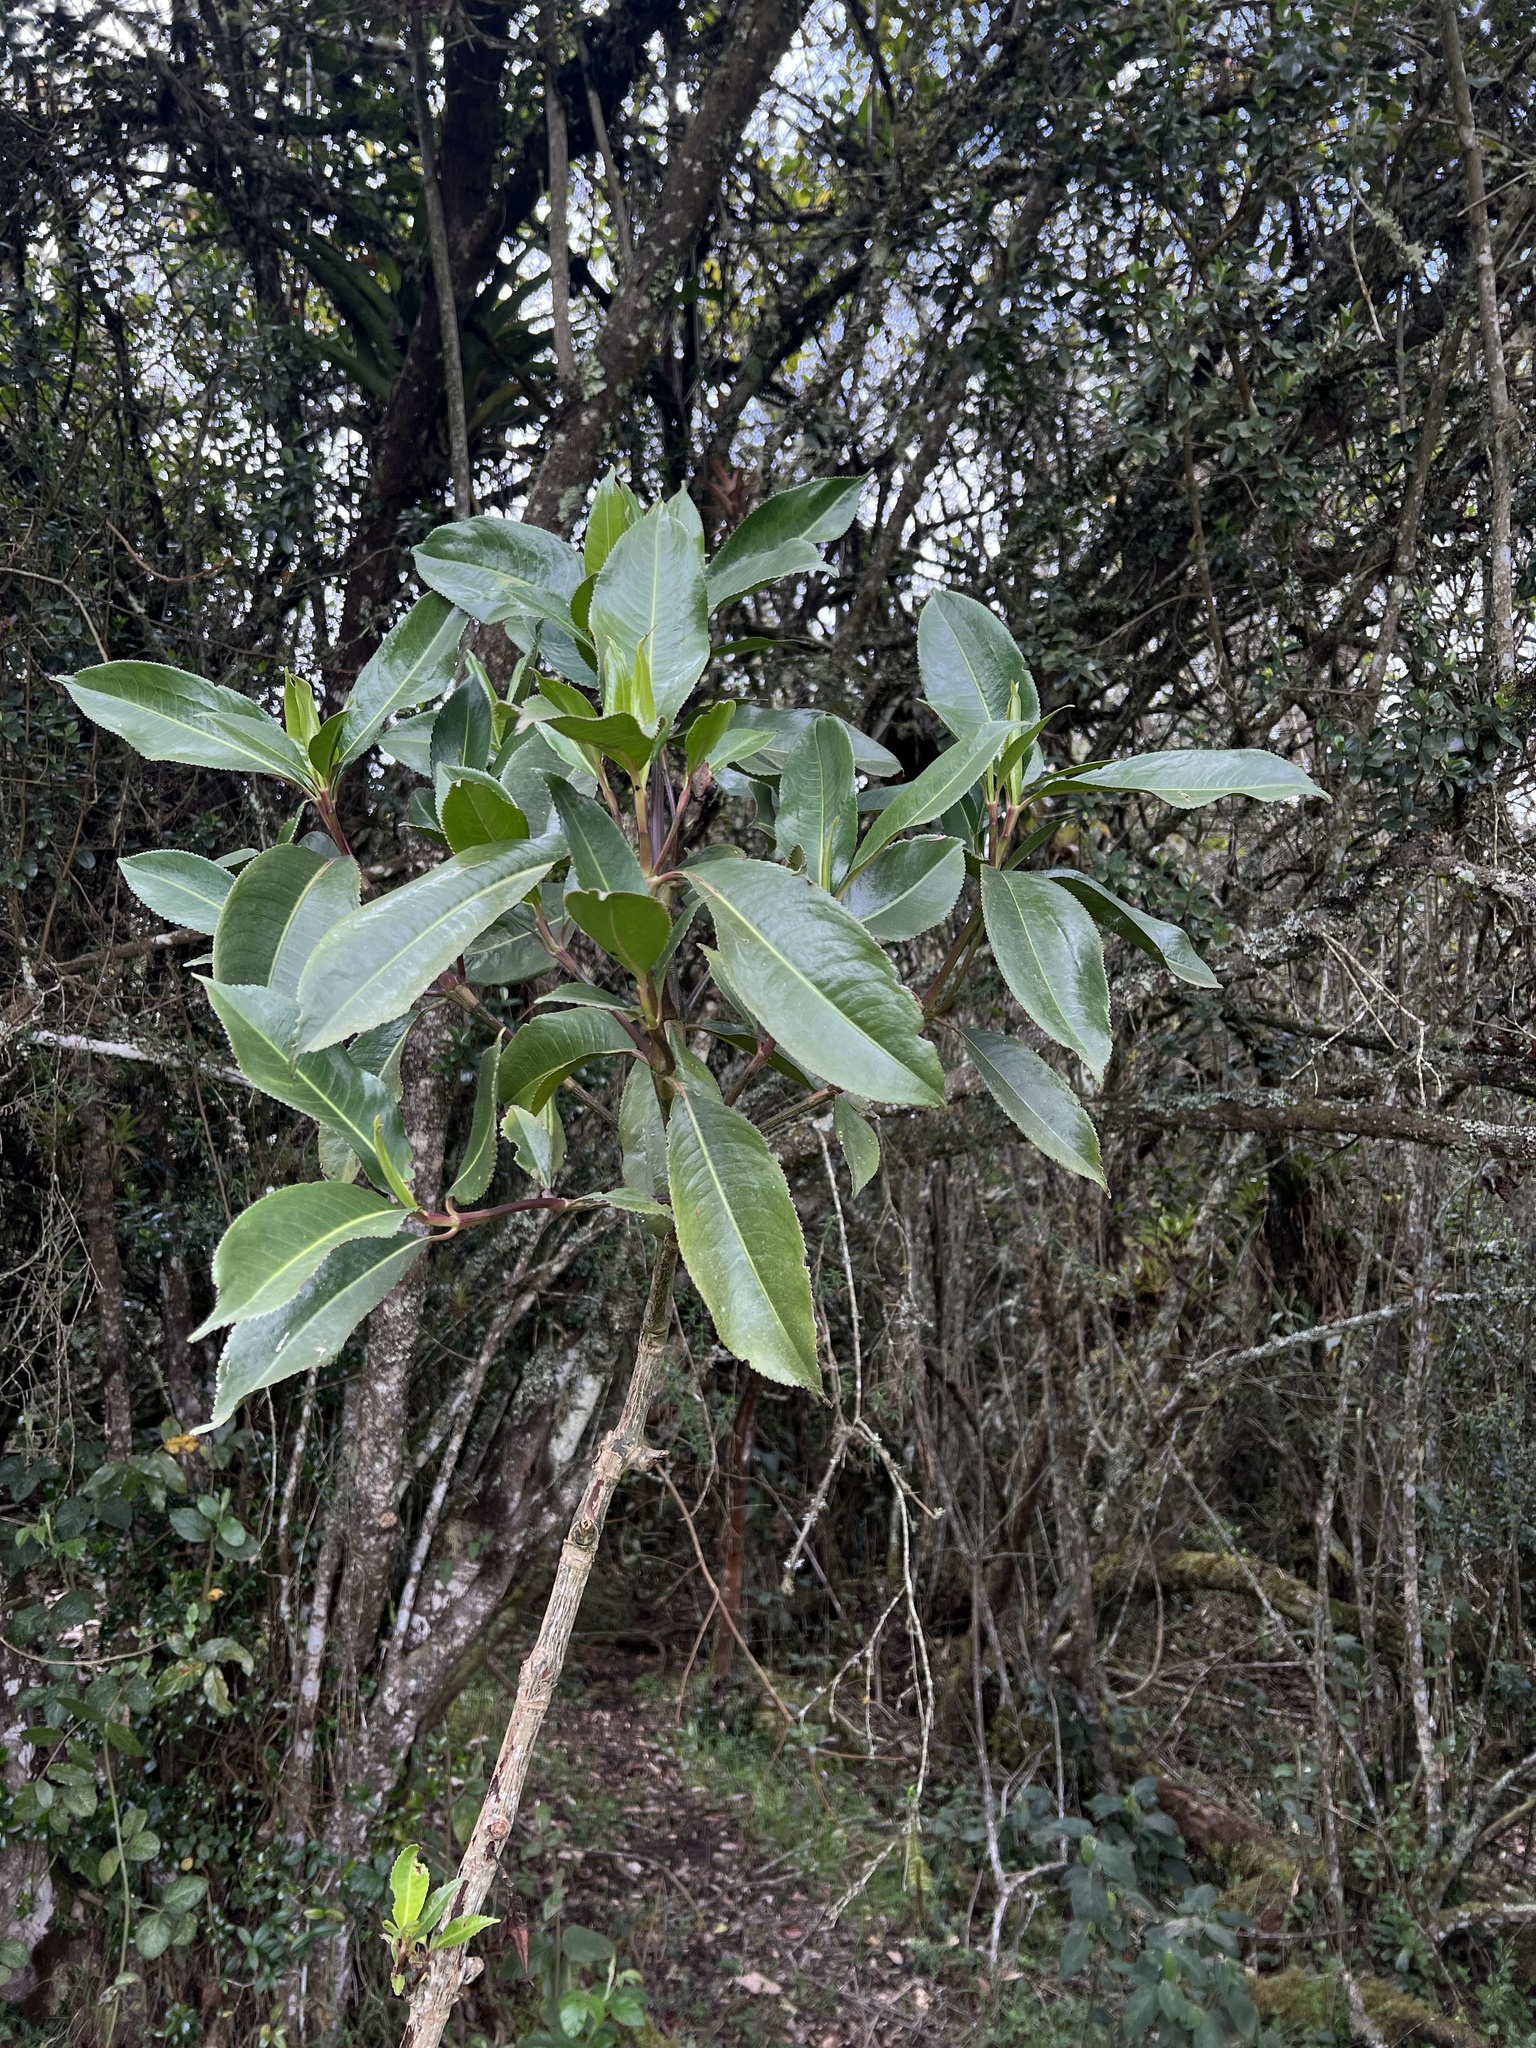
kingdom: Plantae
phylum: Tracheophyta
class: Magnoliopsida
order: Chloranthales
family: Chloranthaceae
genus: Hedyosmum
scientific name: Hedyosmum bonplandianum
